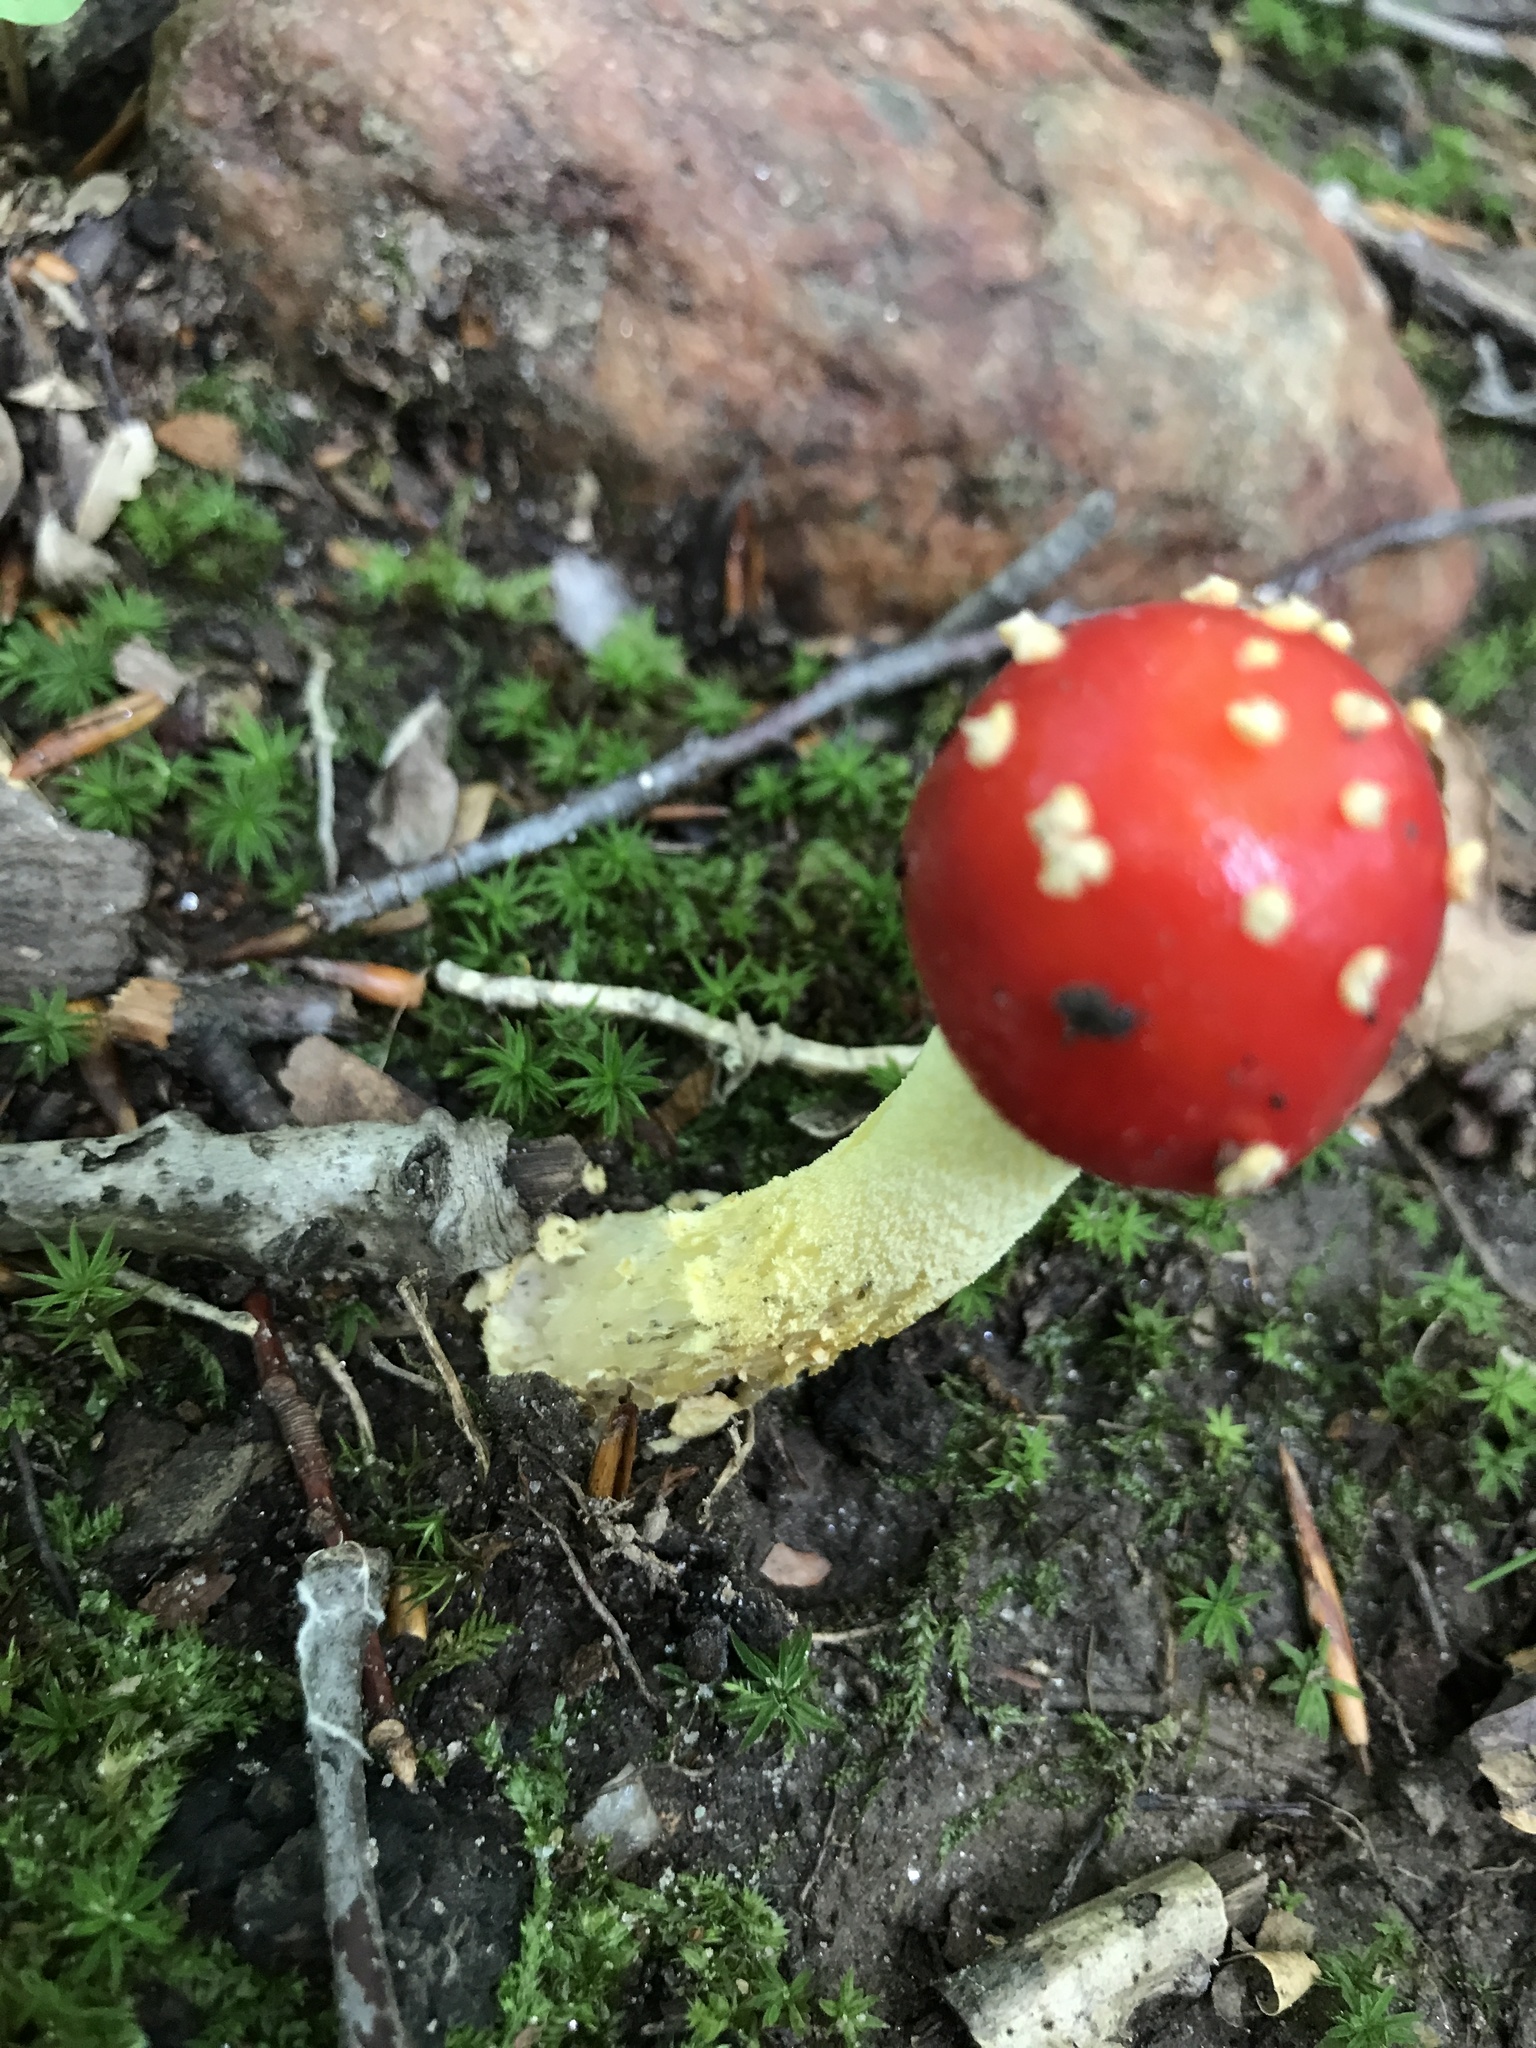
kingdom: Fungi
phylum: Basidiomycota
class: Agaricomycetes
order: Agaricales
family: Amanitaceae
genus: Amanita
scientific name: Amanita parcivolvata
